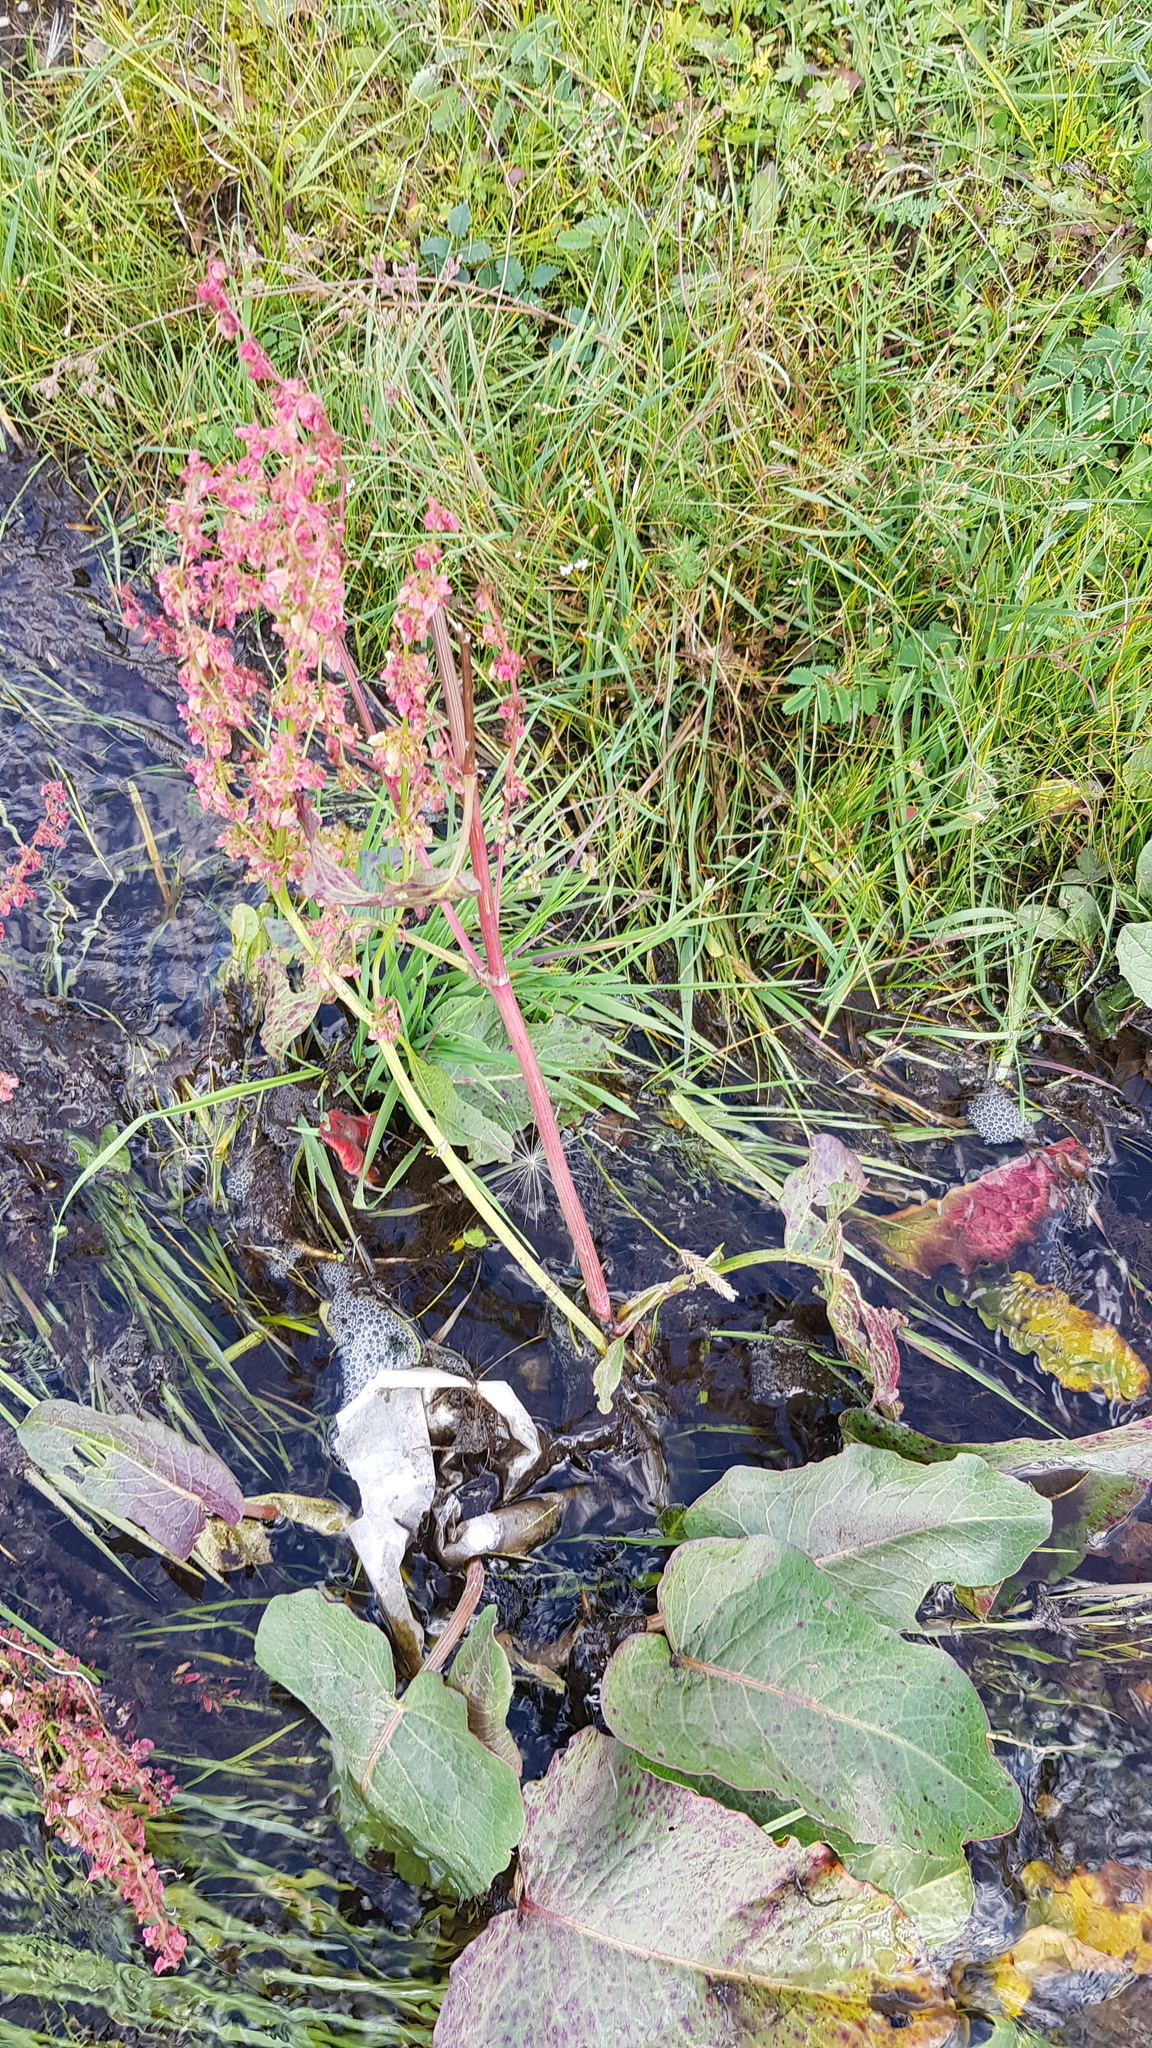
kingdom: Plantae
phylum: Tracheophyta
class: Magnoliopsida
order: Caryophyllales
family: Polygonaceae
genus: Rumex
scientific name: Rumex aquaticus
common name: Scottish dock
